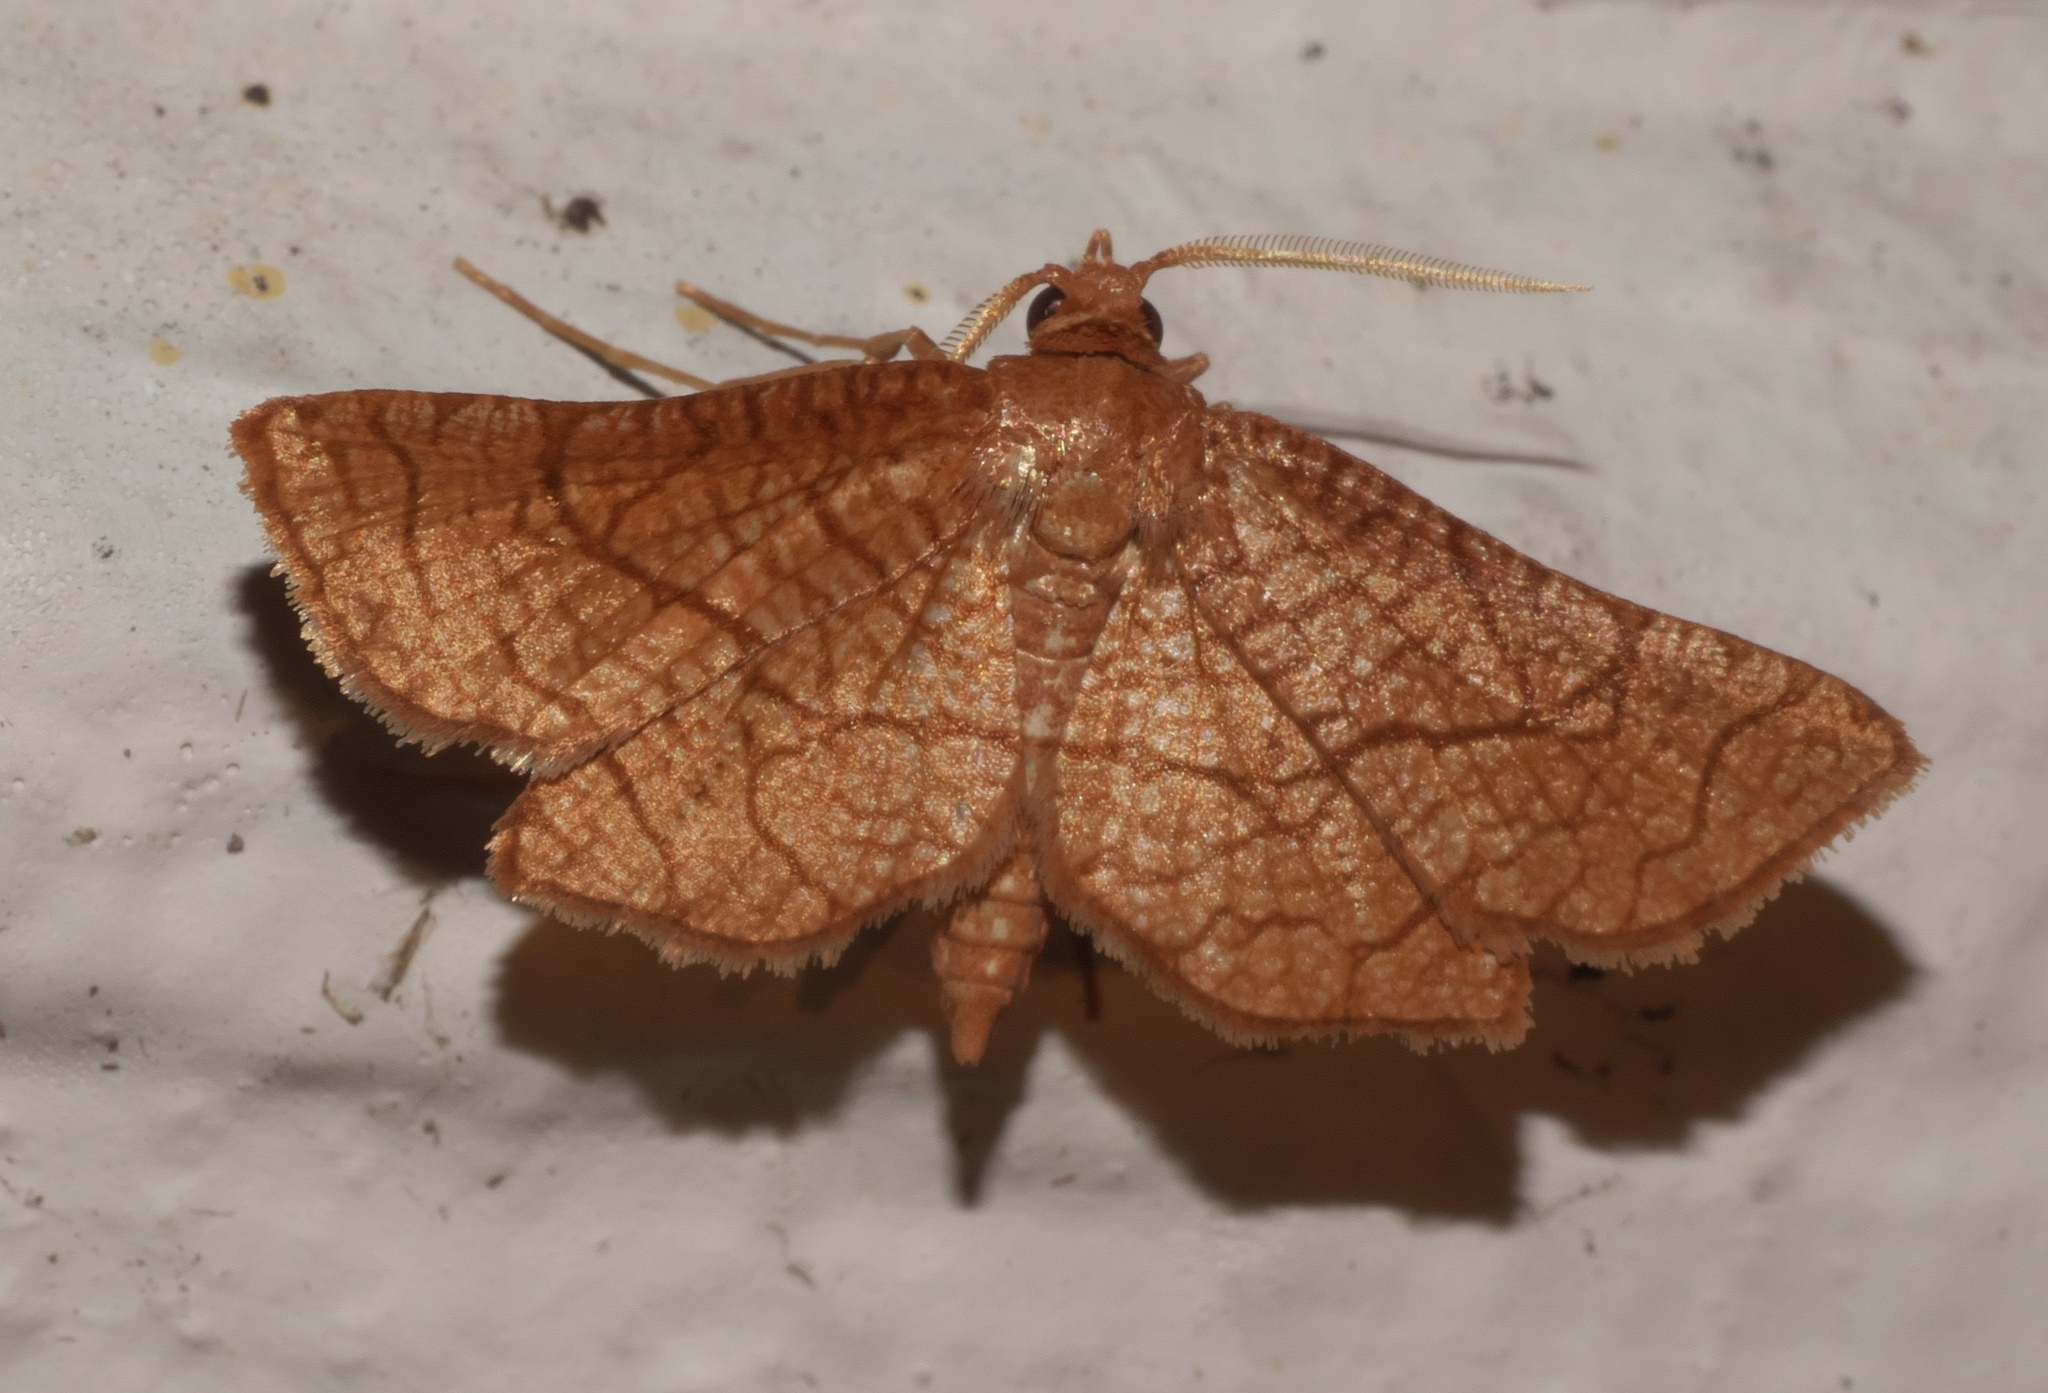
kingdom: Animalia
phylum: Arthropoda
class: Insecta
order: Lepidoptera
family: Thyrididae
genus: Hexeris
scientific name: Hexeris enhydris
